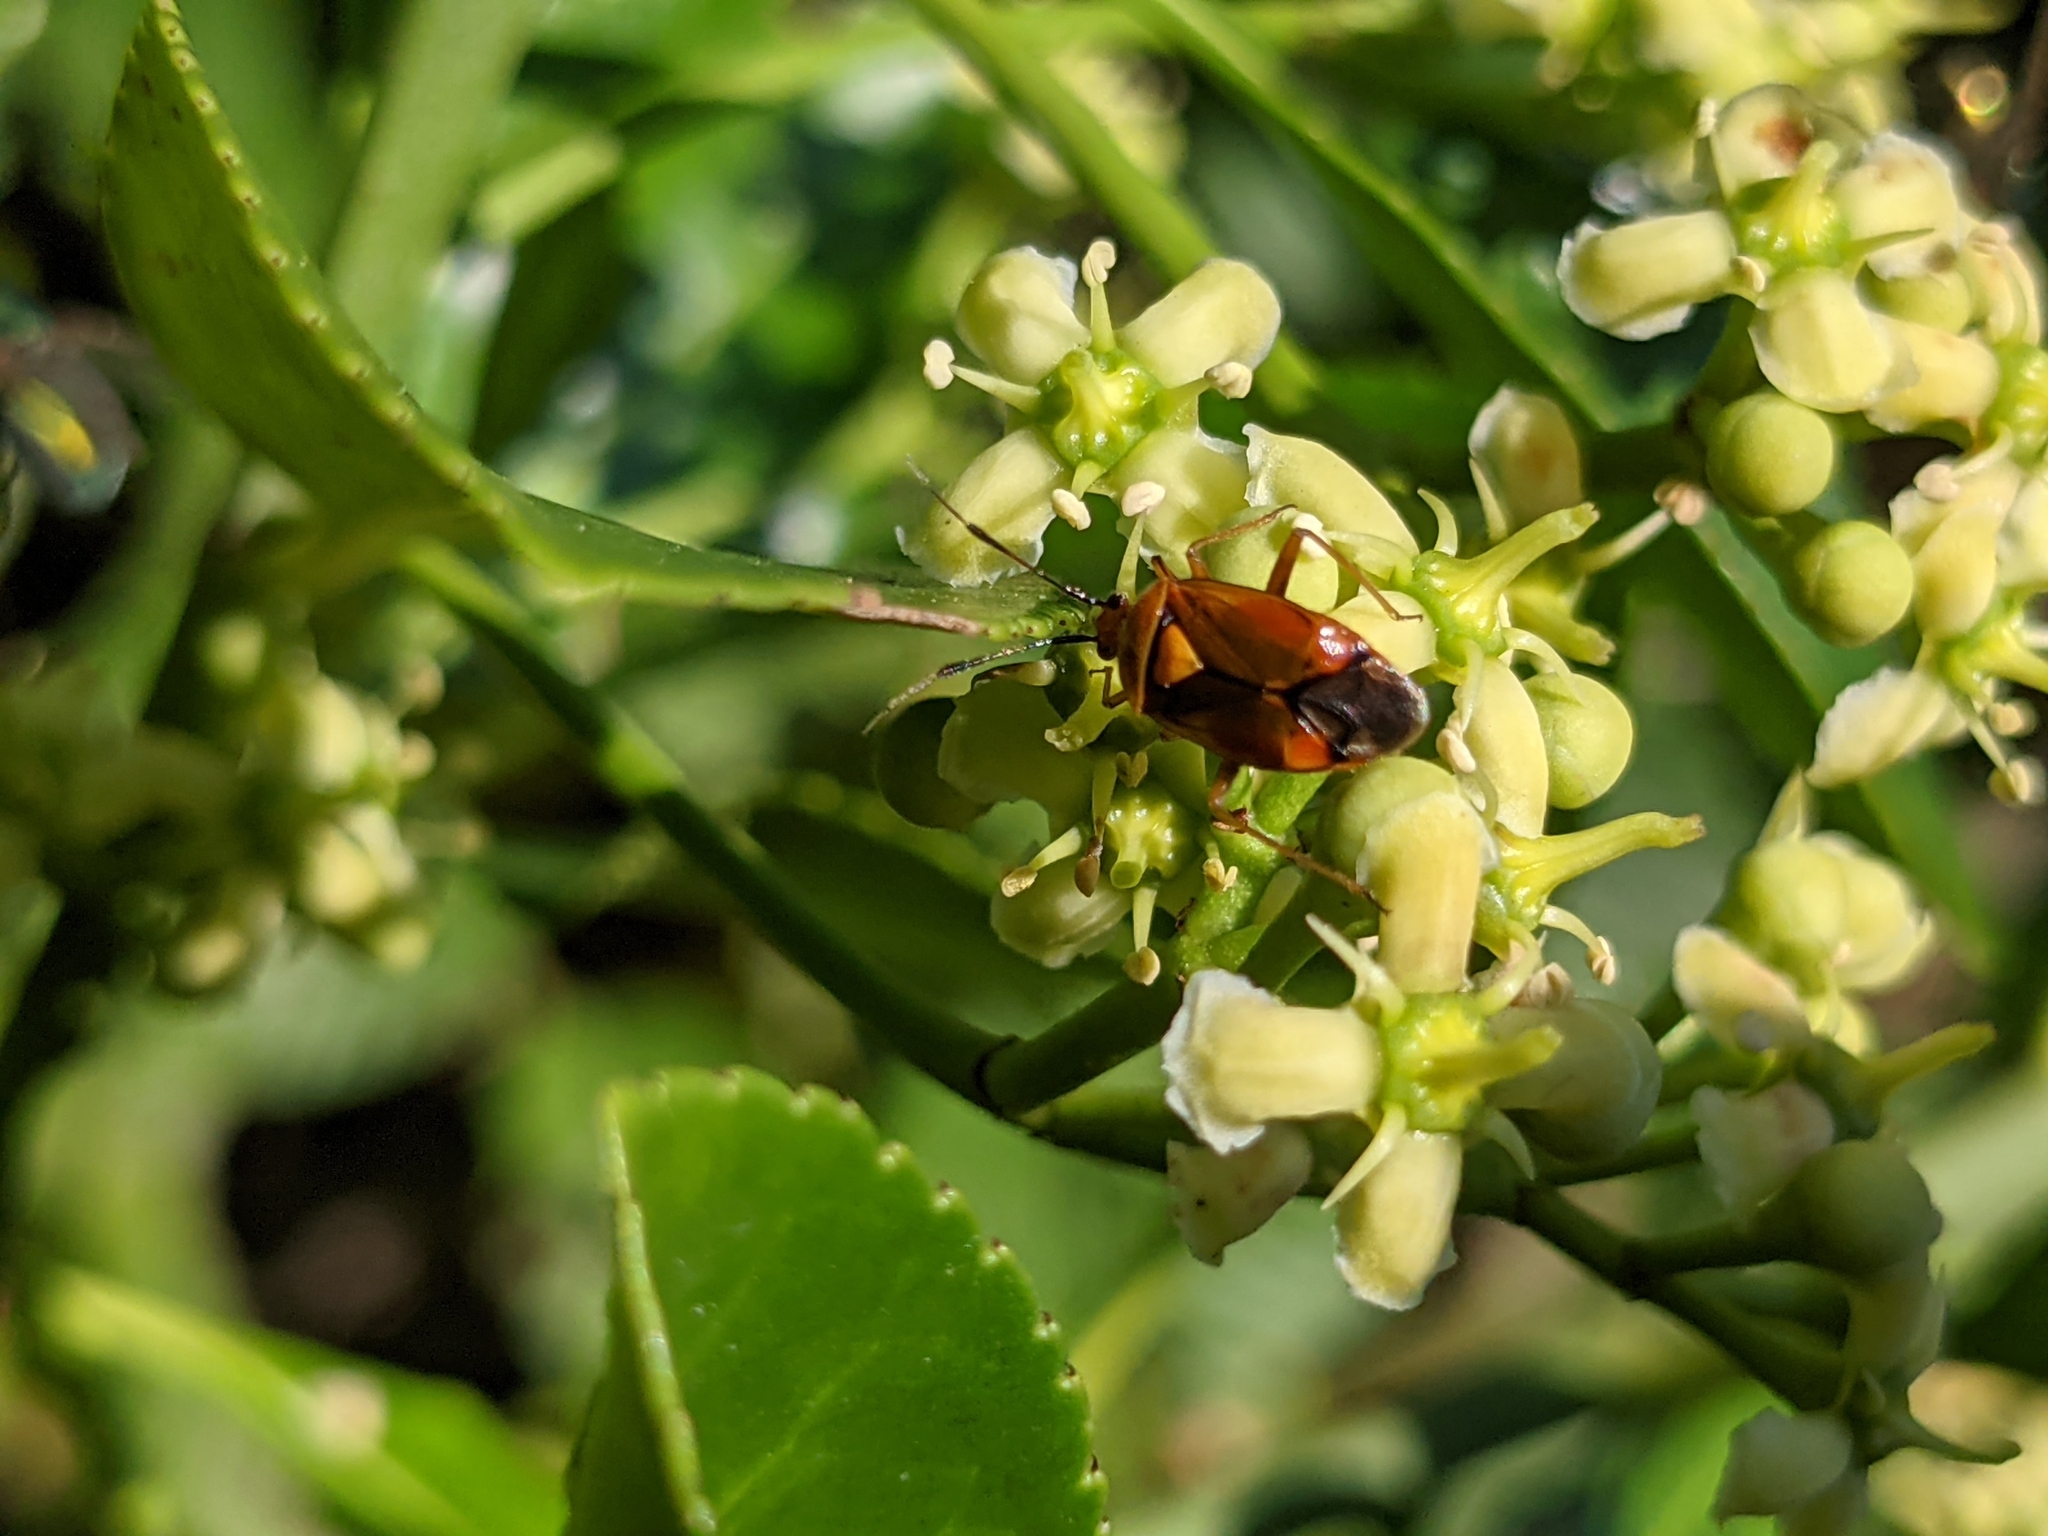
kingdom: Animalia
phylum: Arthropoda
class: Insecta
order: Hemiptera
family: Miridae
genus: Deraeocoris
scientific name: Deraeocoris ruber
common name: Plant bug
